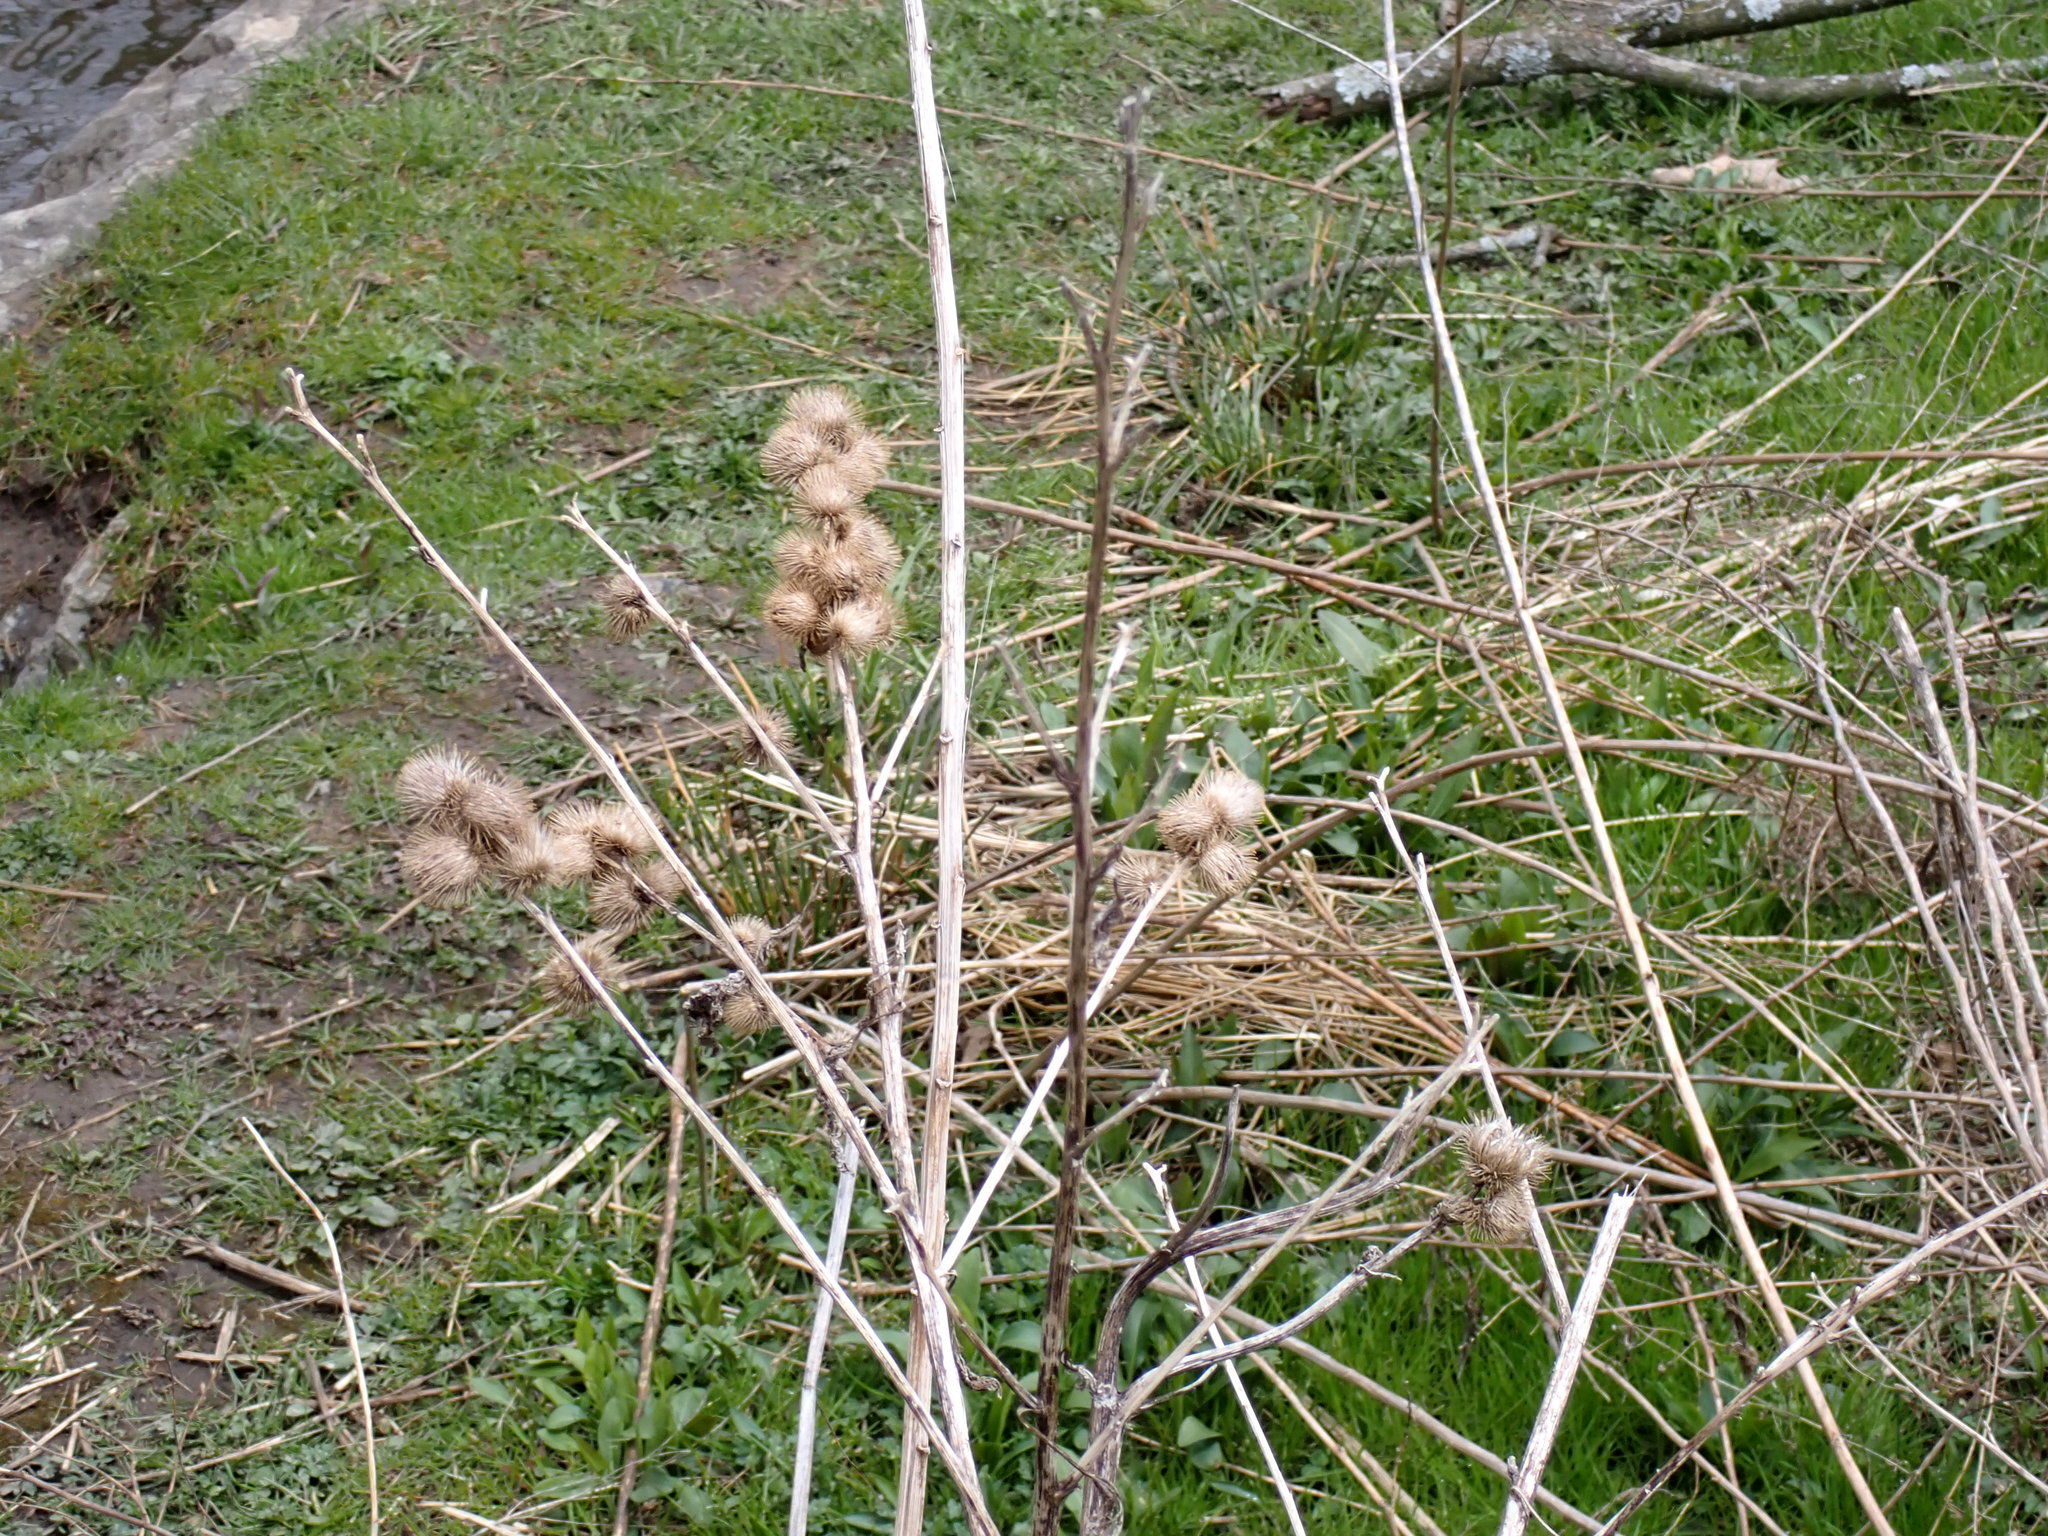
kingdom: Plantae
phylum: Tracheophyta
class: Magnoliopsida
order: Asterales
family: Asteraceae
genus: Arctium
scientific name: Arctium minus
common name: Lesser burdock
